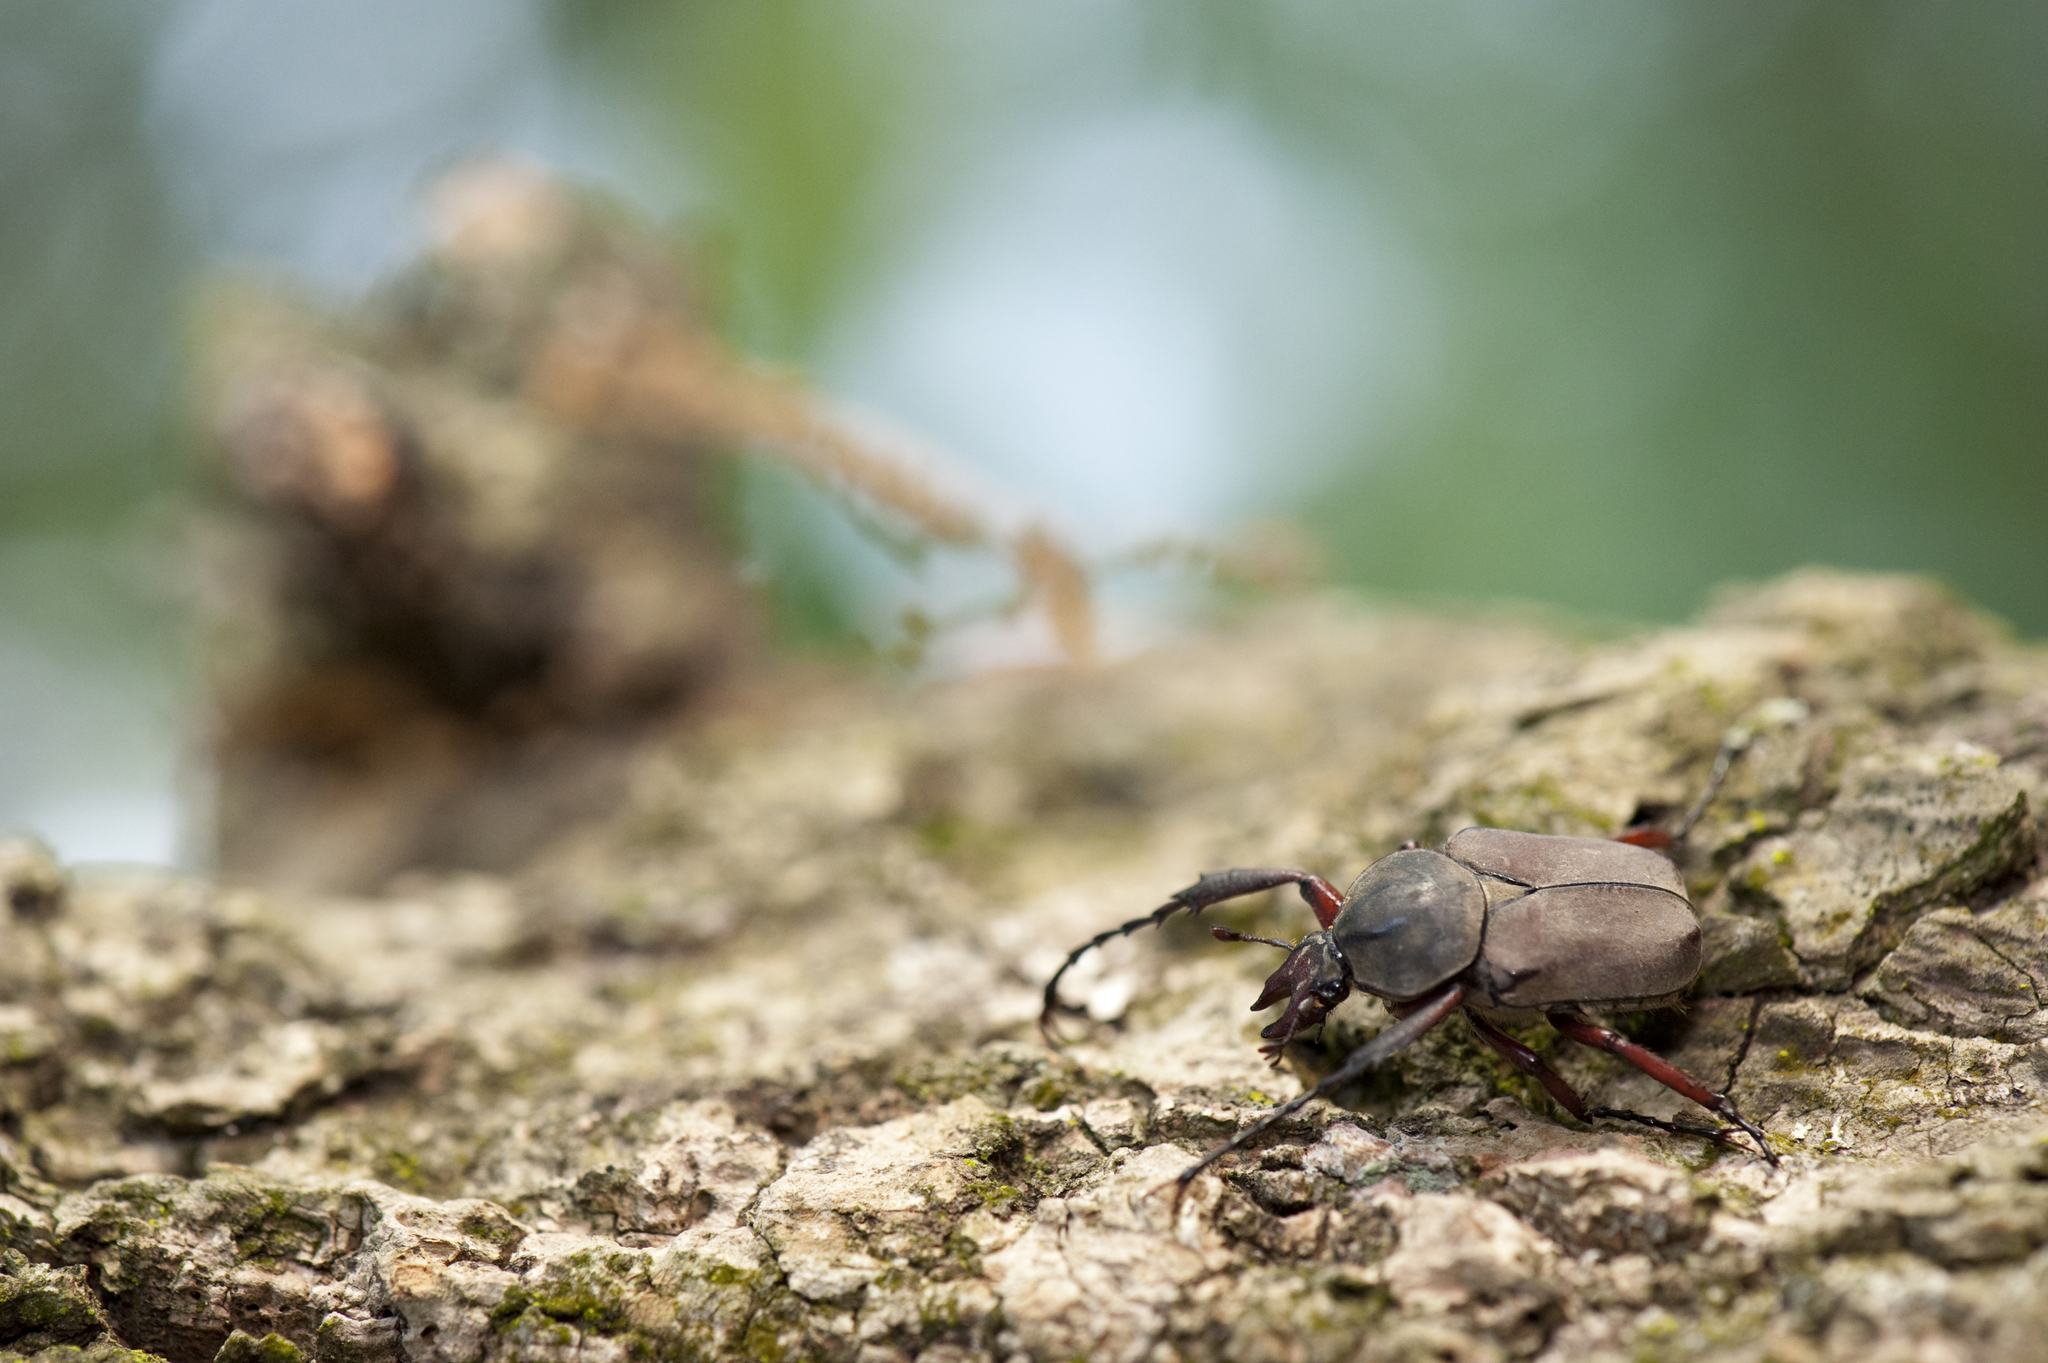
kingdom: Animalia
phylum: Arthropoda
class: Insecta
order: Coleoptera
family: Scarabaeidae
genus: Dicronocephalus
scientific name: Dicronocephalus yui
